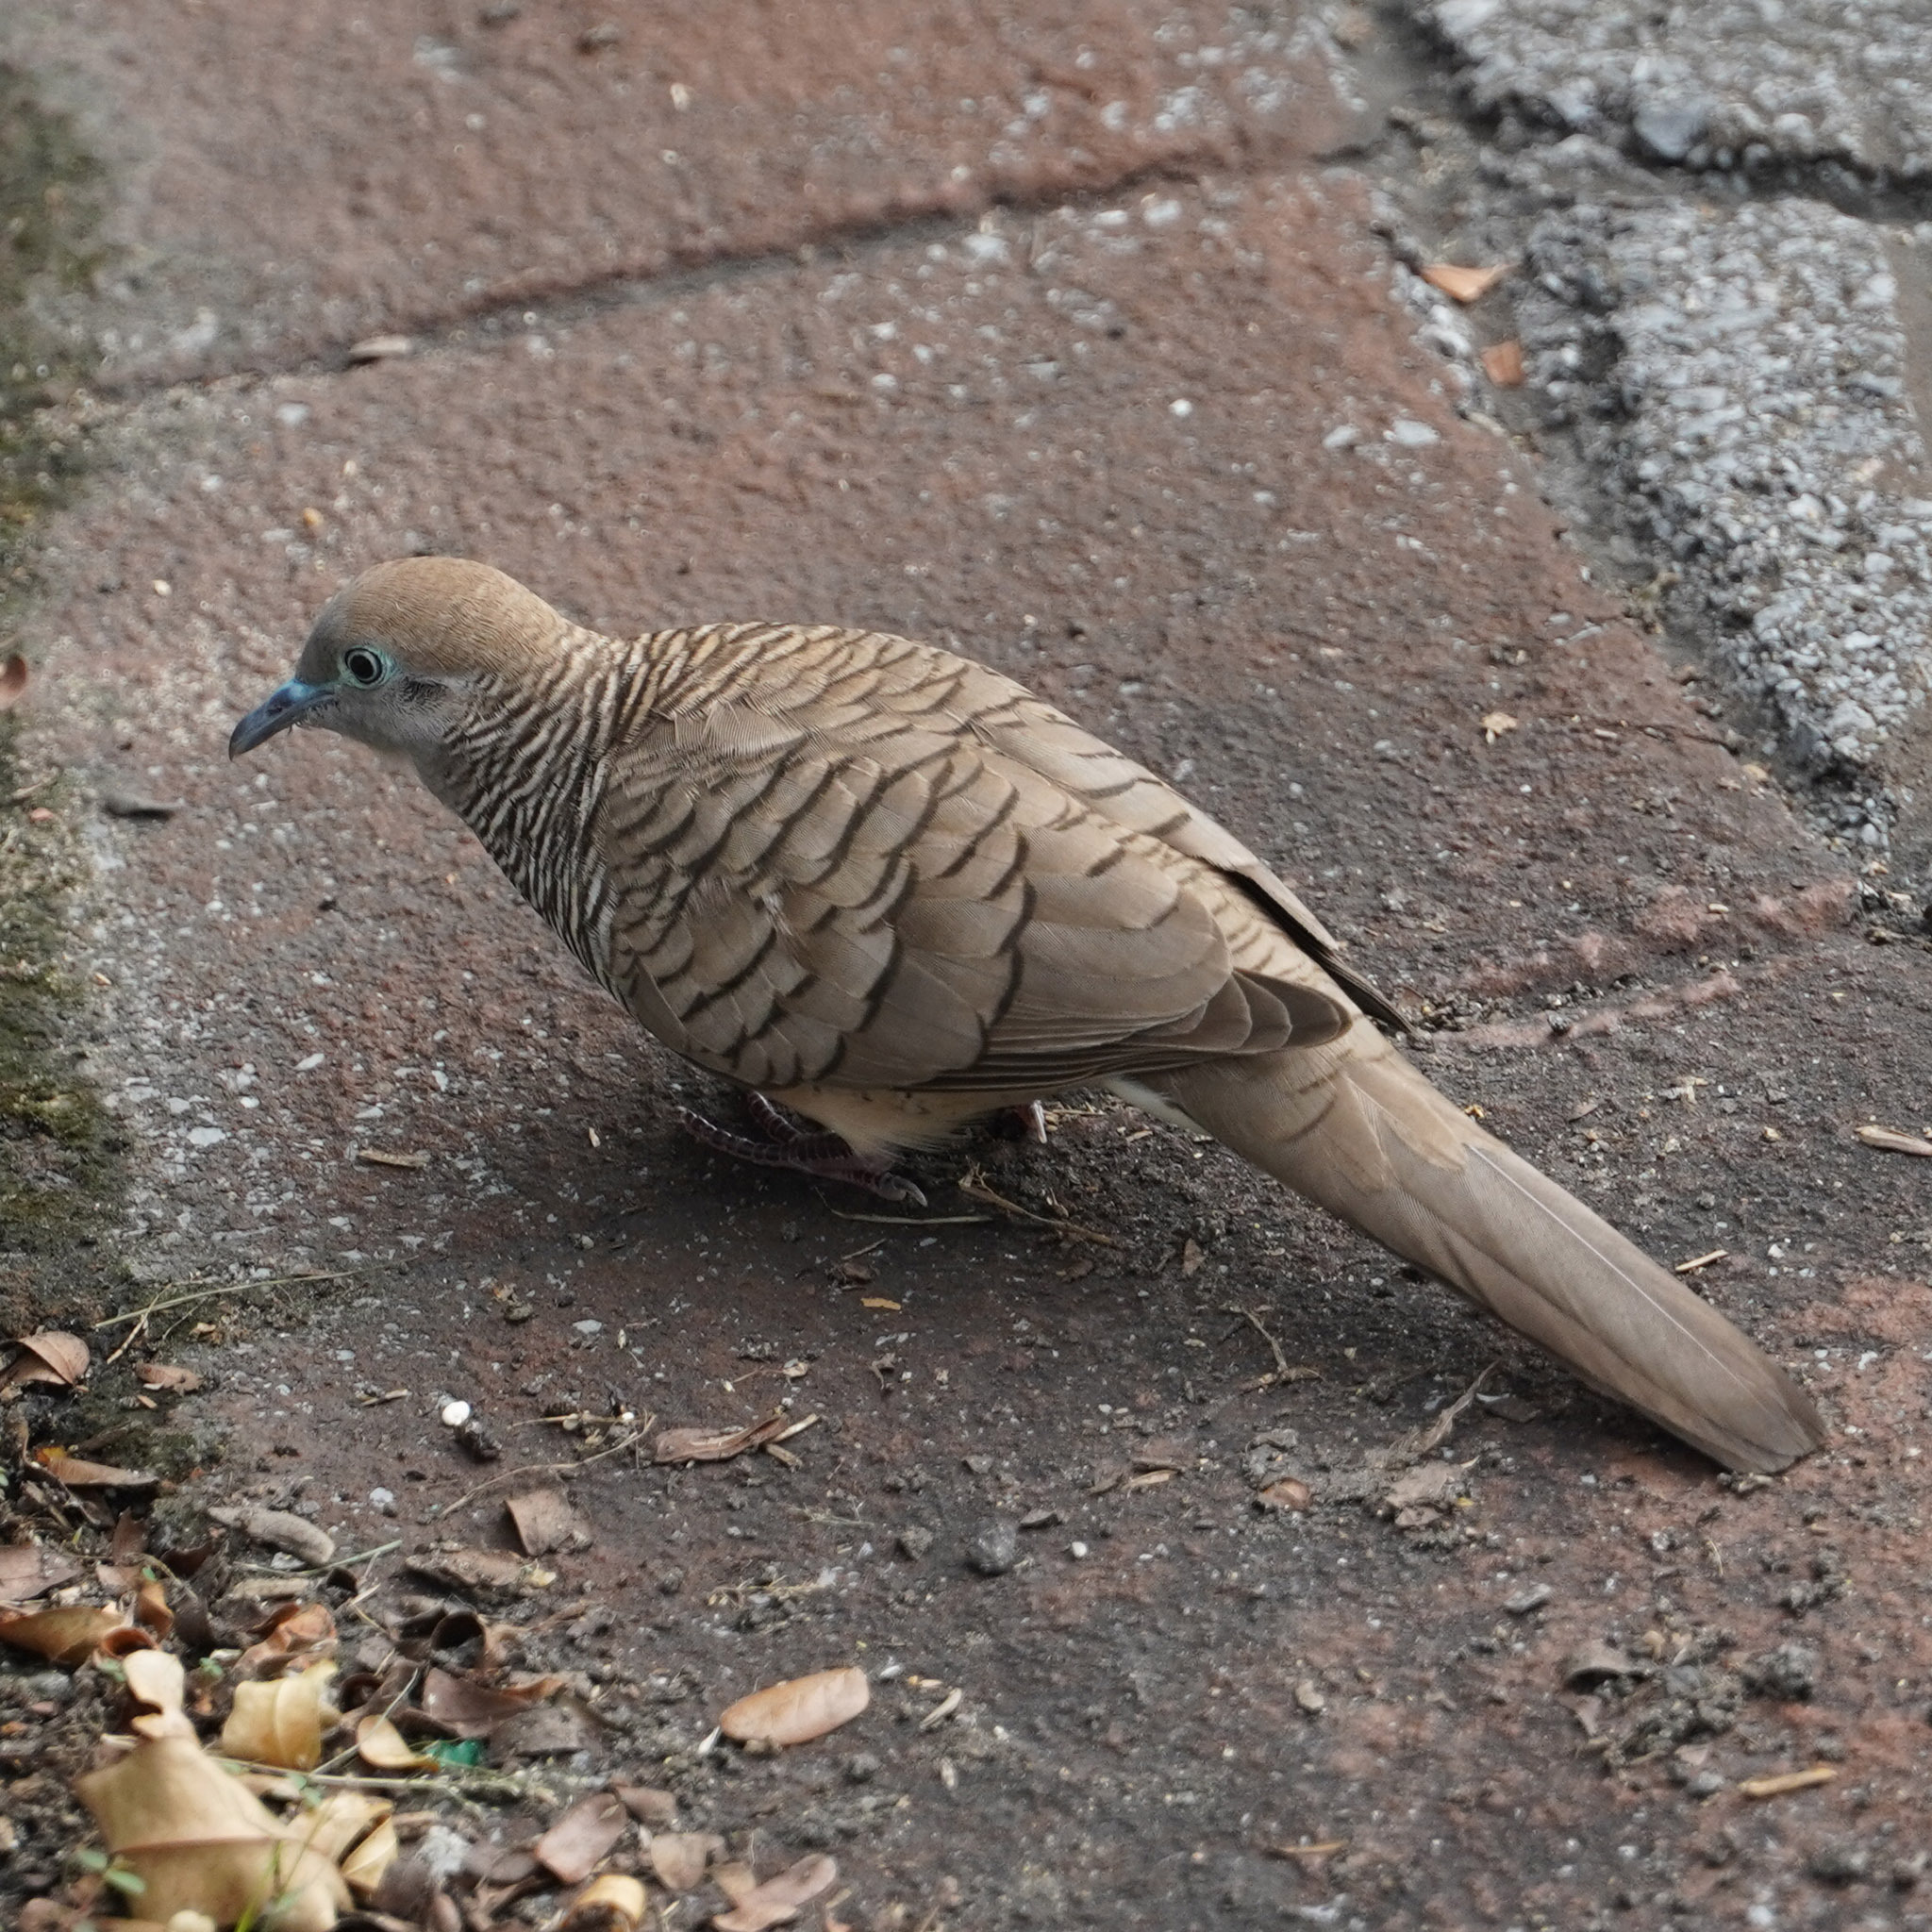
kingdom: Animalia
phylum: Chordata
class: Aves
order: Columbiformes
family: Columbidae
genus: Geopelia
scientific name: Geopelia striata
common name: Zebra dove
